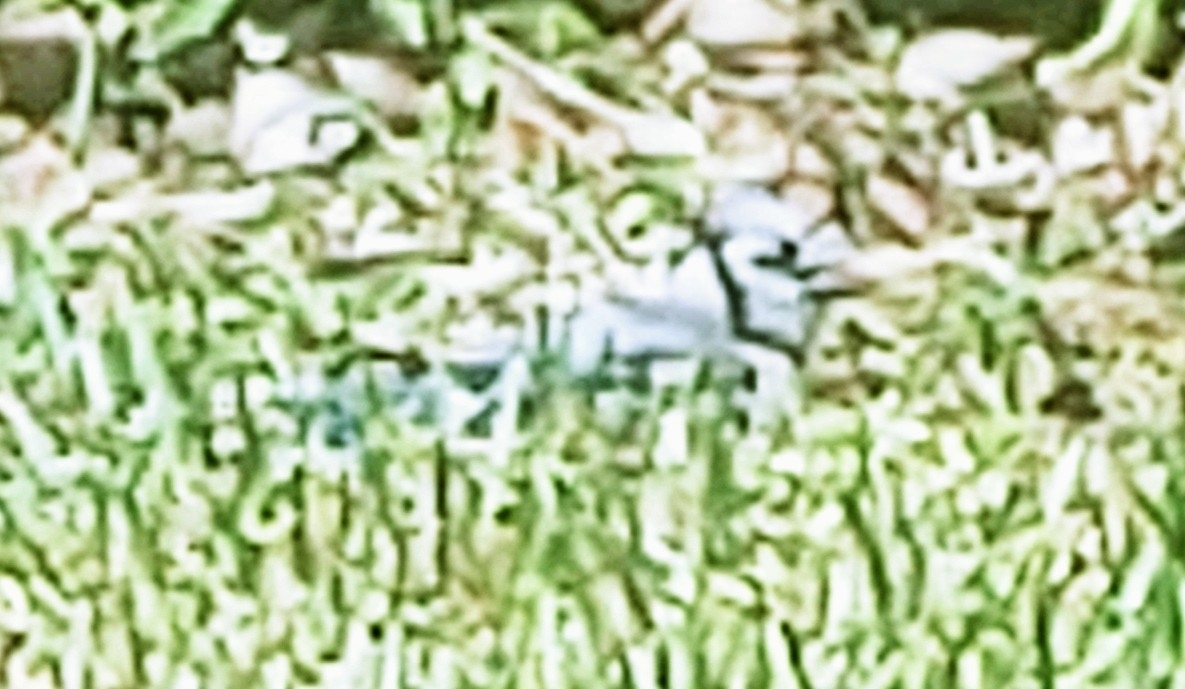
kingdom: Animalia
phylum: Chordata
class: Aves
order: Passeriformes
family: Corvidae
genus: Cyanocitta
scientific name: Cyanocitta cristata
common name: Blue jay
